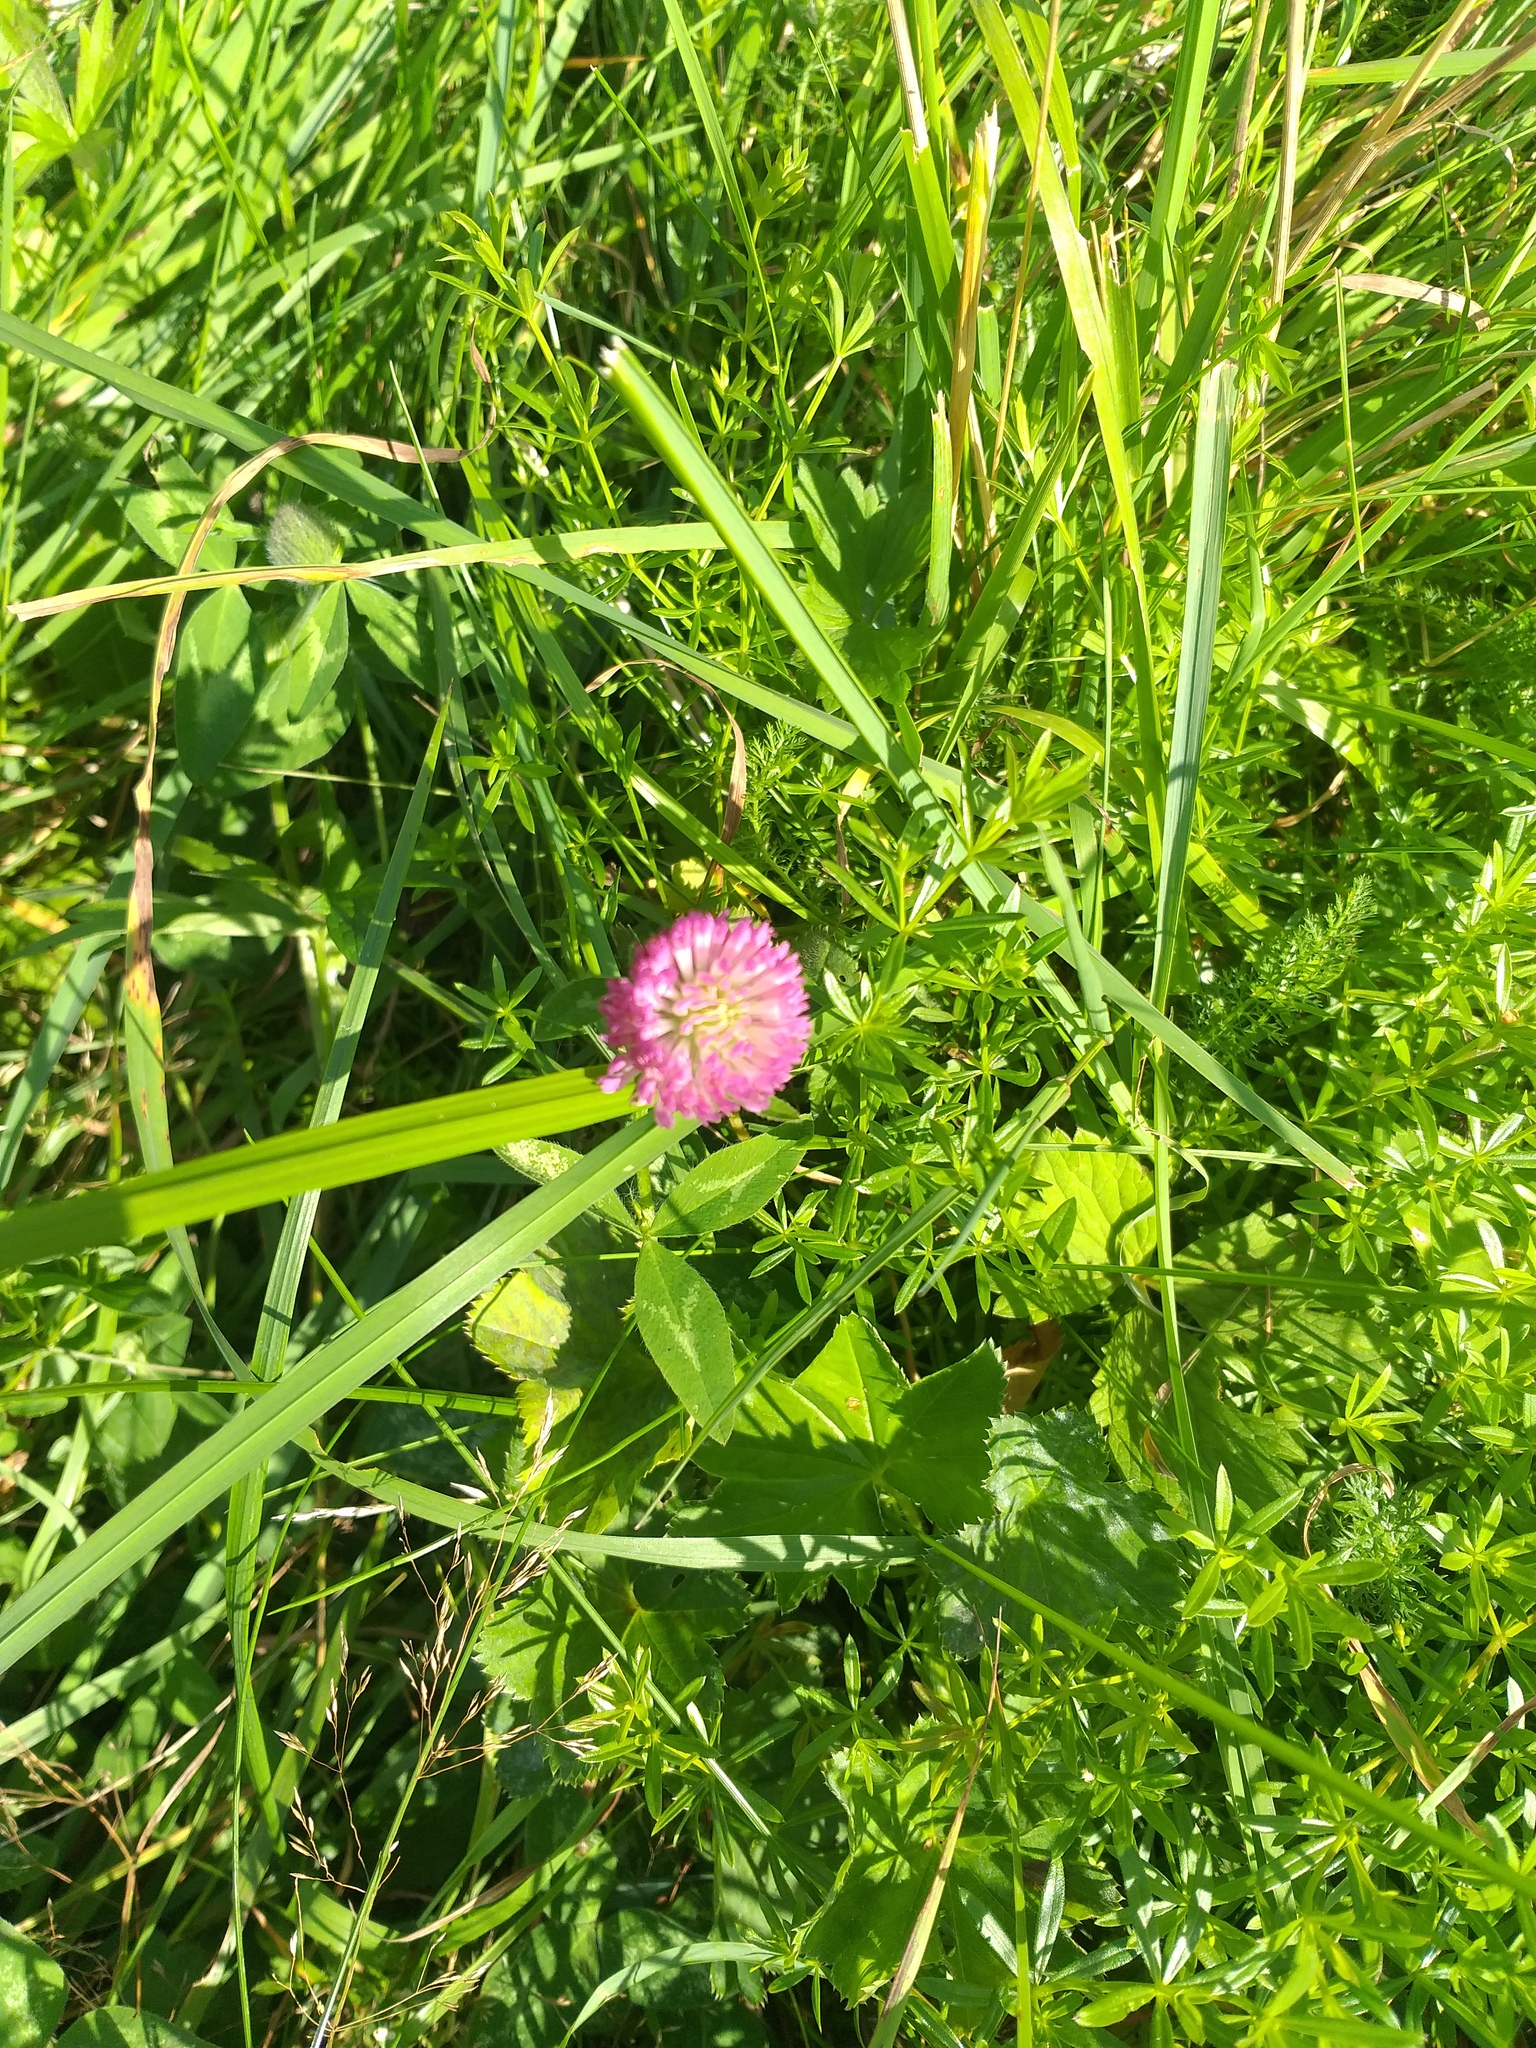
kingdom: Plantae
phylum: Tracheophyta
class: Magnoliopsida
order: Fabales
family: Fabaceae
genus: Trifolium
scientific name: Trifolium pratense
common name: Red clover
